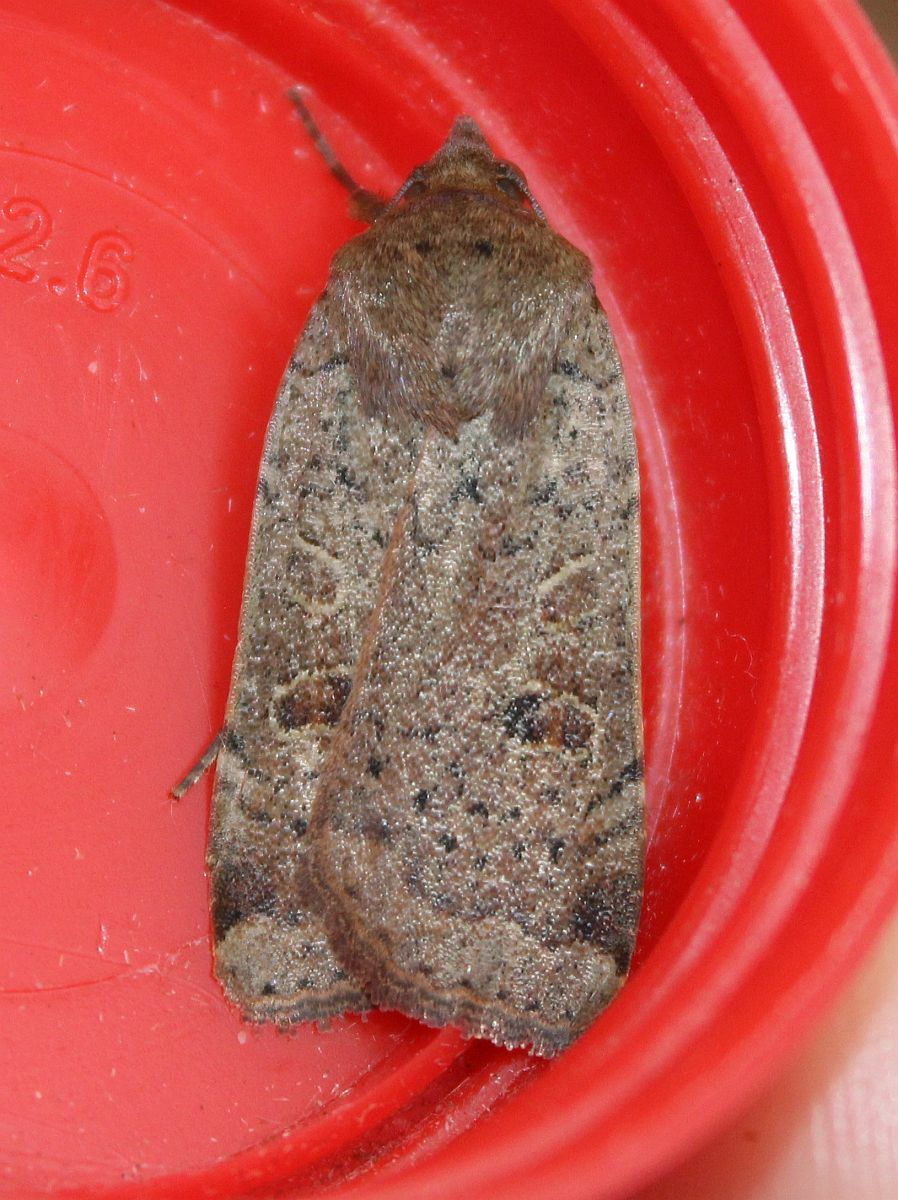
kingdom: Animalia
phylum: Arthropoda
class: Insecta
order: Lepidoptera
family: Noctuidae
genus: Noctua
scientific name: Noctua comes
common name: Lesser yellow underwing
